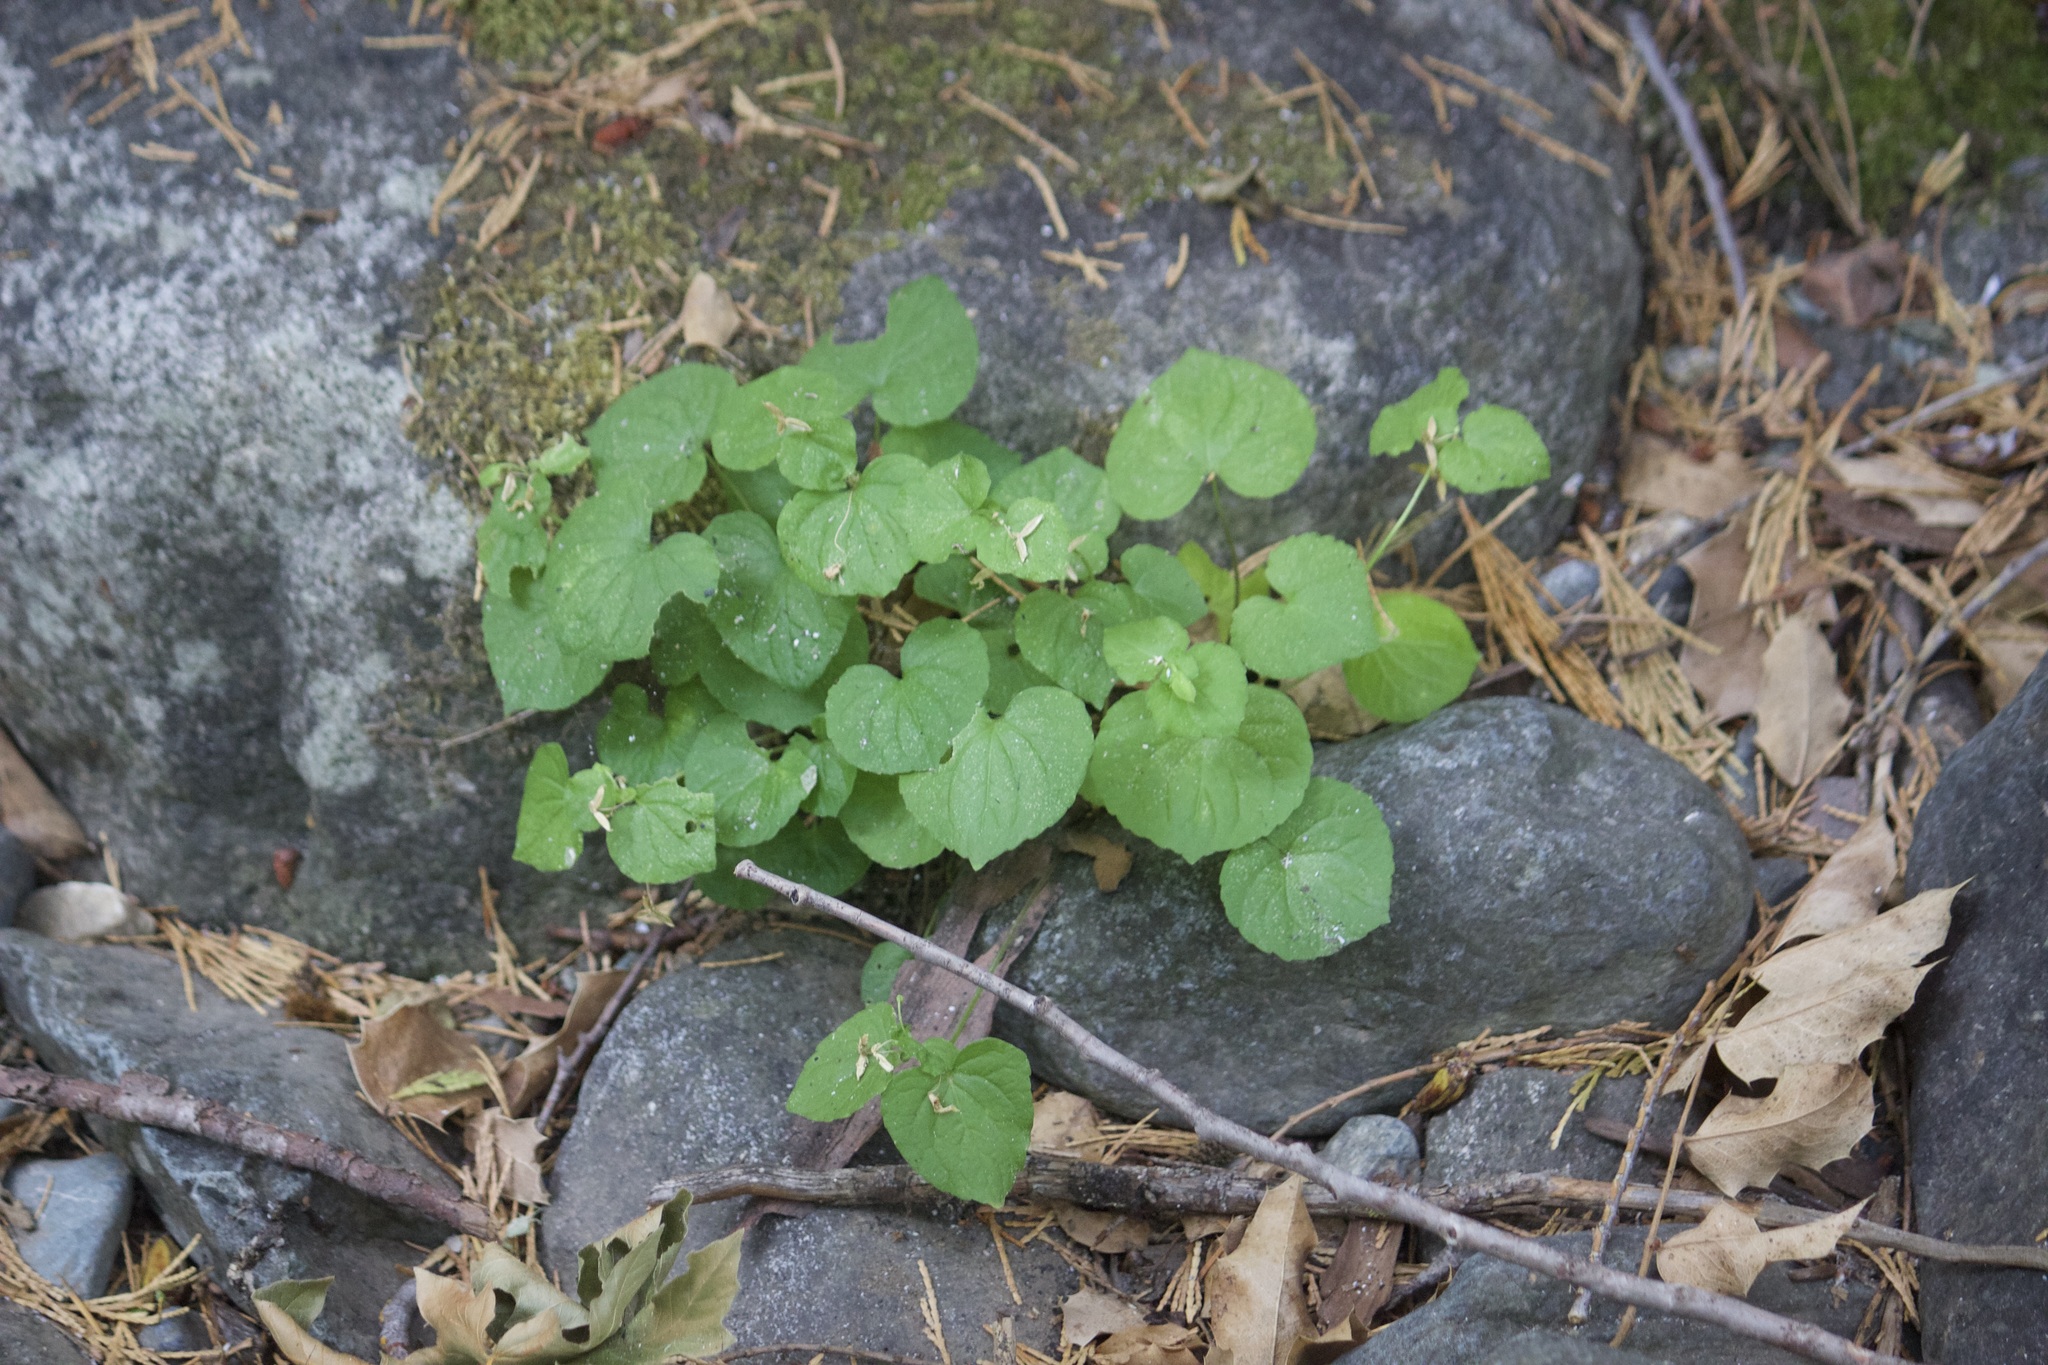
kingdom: Plantae
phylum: Tracheophyta
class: Magnoliopsida
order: Malpighiales
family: Violaceae
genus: Viola
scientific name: Viola glabella
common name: Stream violet
